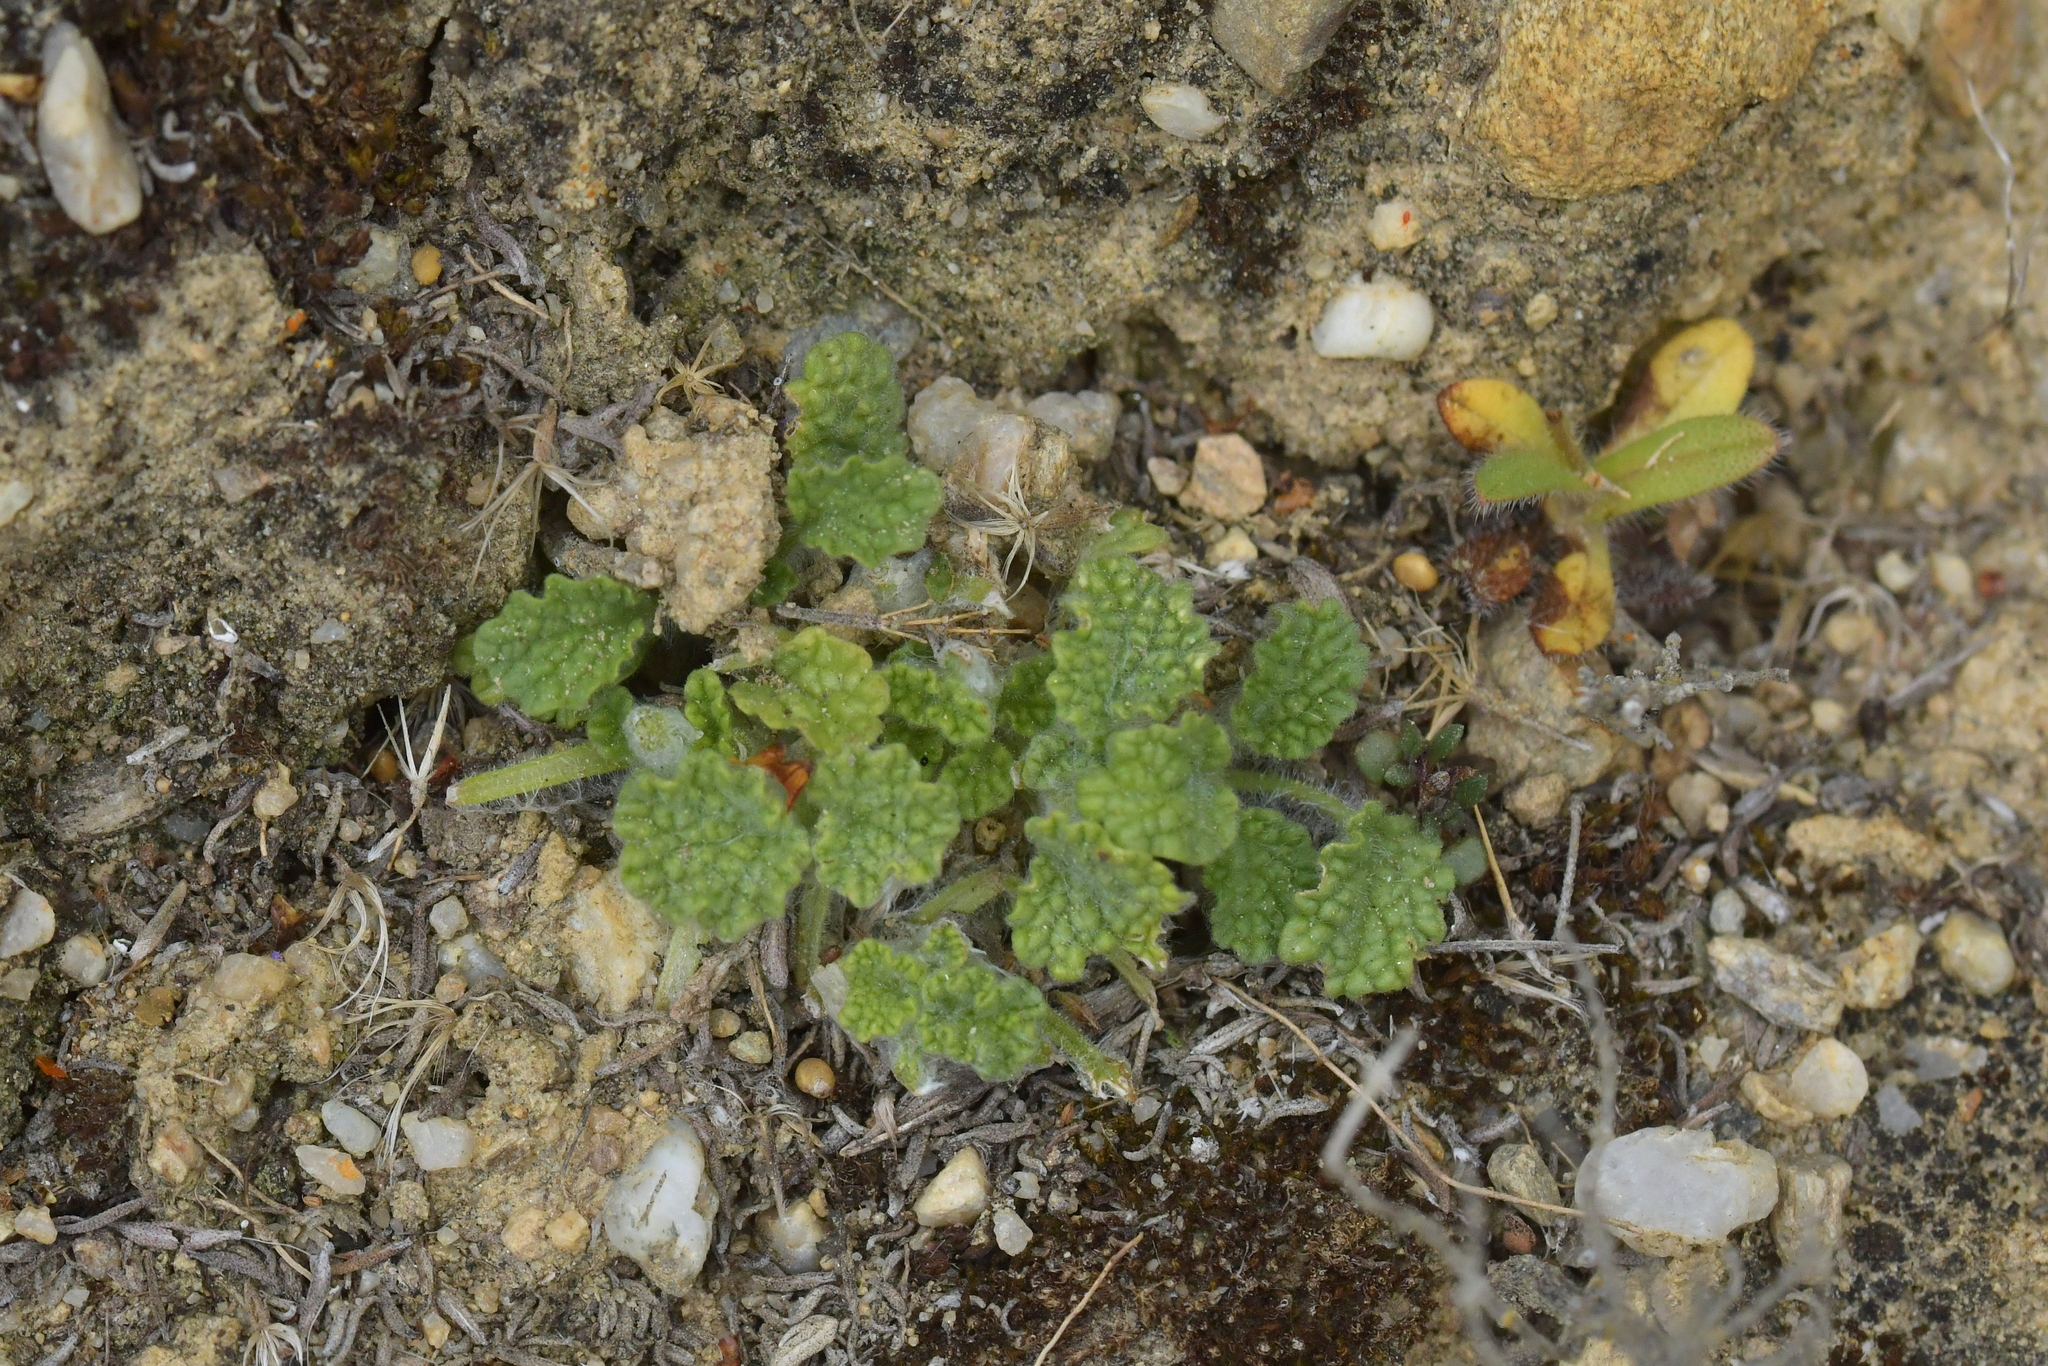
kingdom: Plantae
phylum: Tracheophyta
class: Magnoliopsida
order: Lamiales
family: Lamiaceae
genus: Marrubium
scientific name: Marrubium vulgare
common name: Horehound
